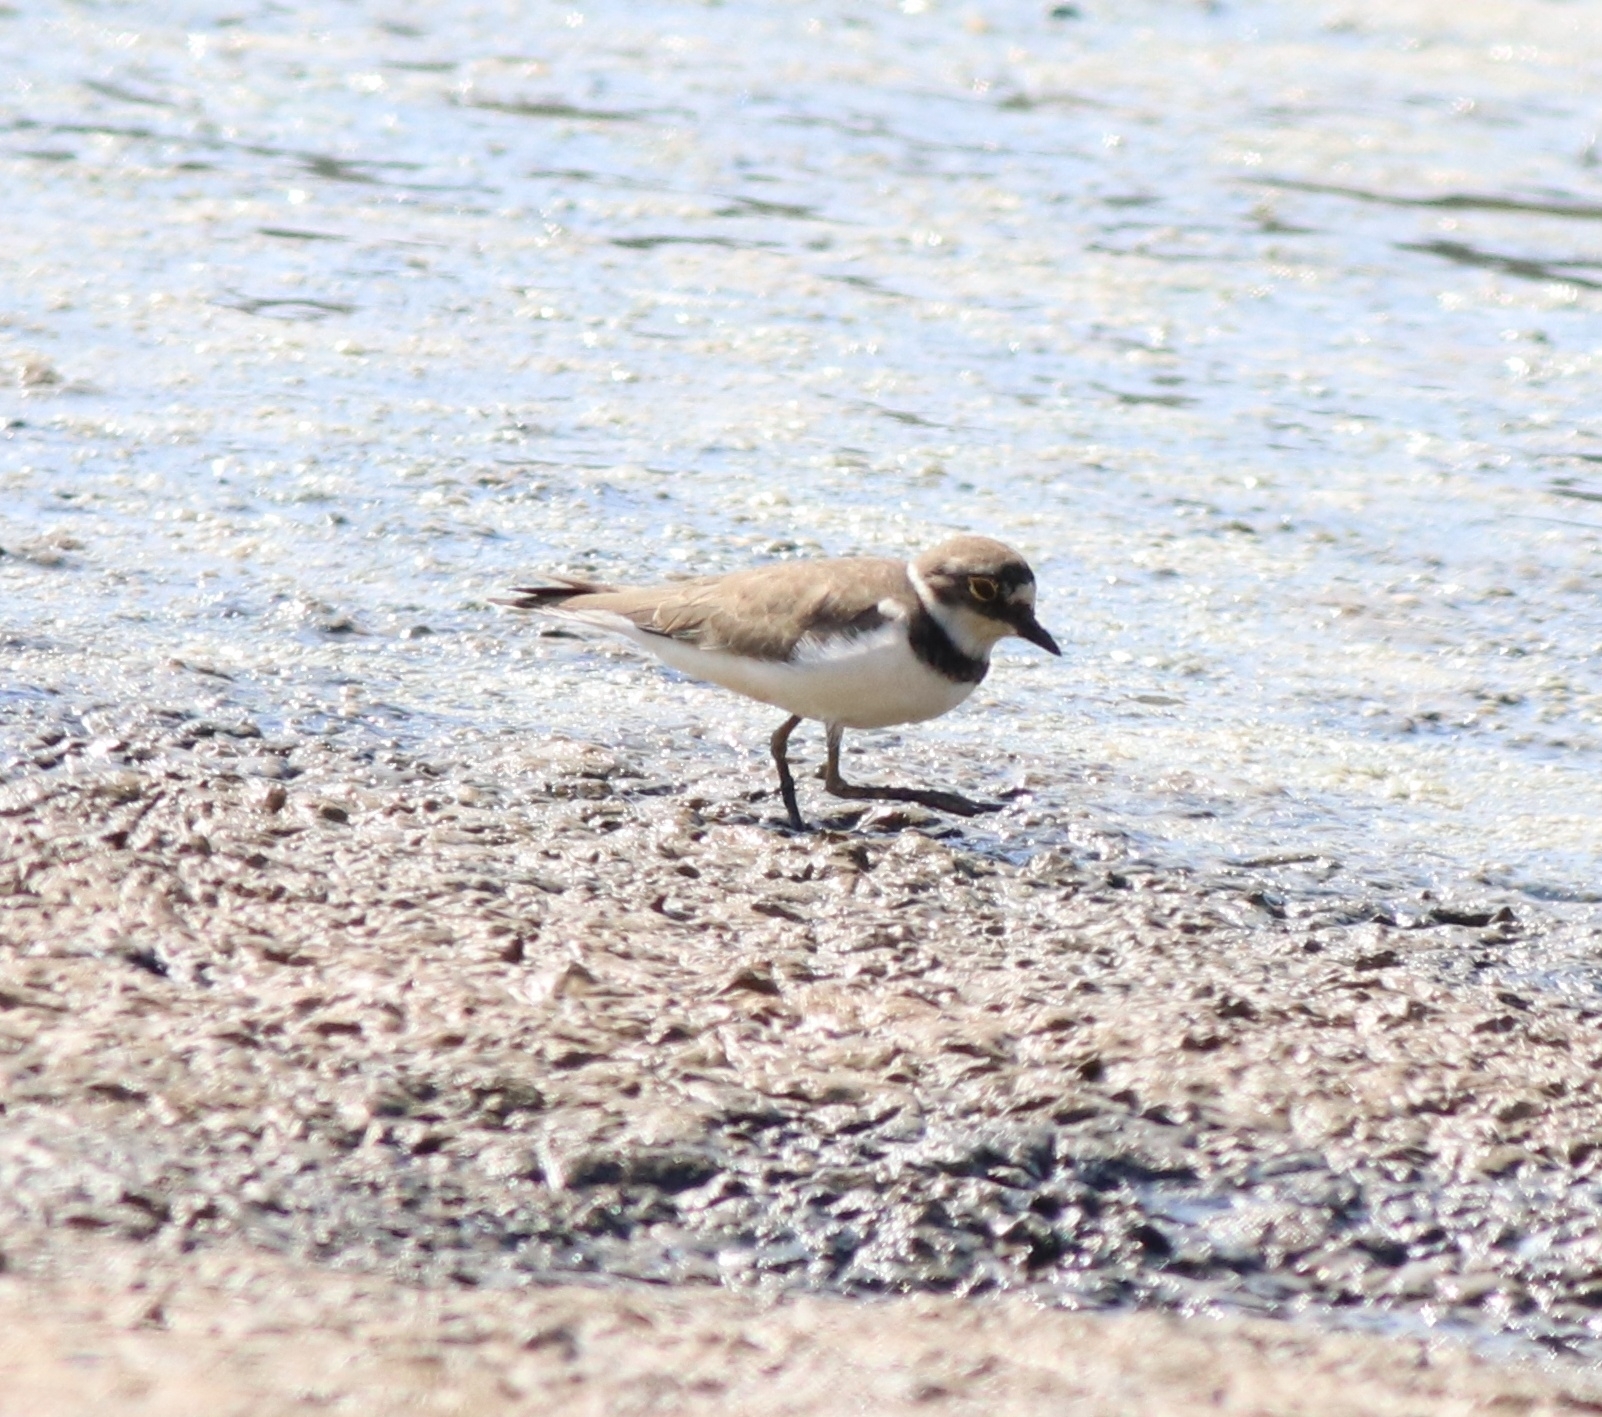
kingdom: Animalia
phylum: Chordata
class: Aves
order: Charadriiformes
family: Charadriidae
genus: Charadrius
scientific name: Charadrius dubius
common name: Little ringed plover
